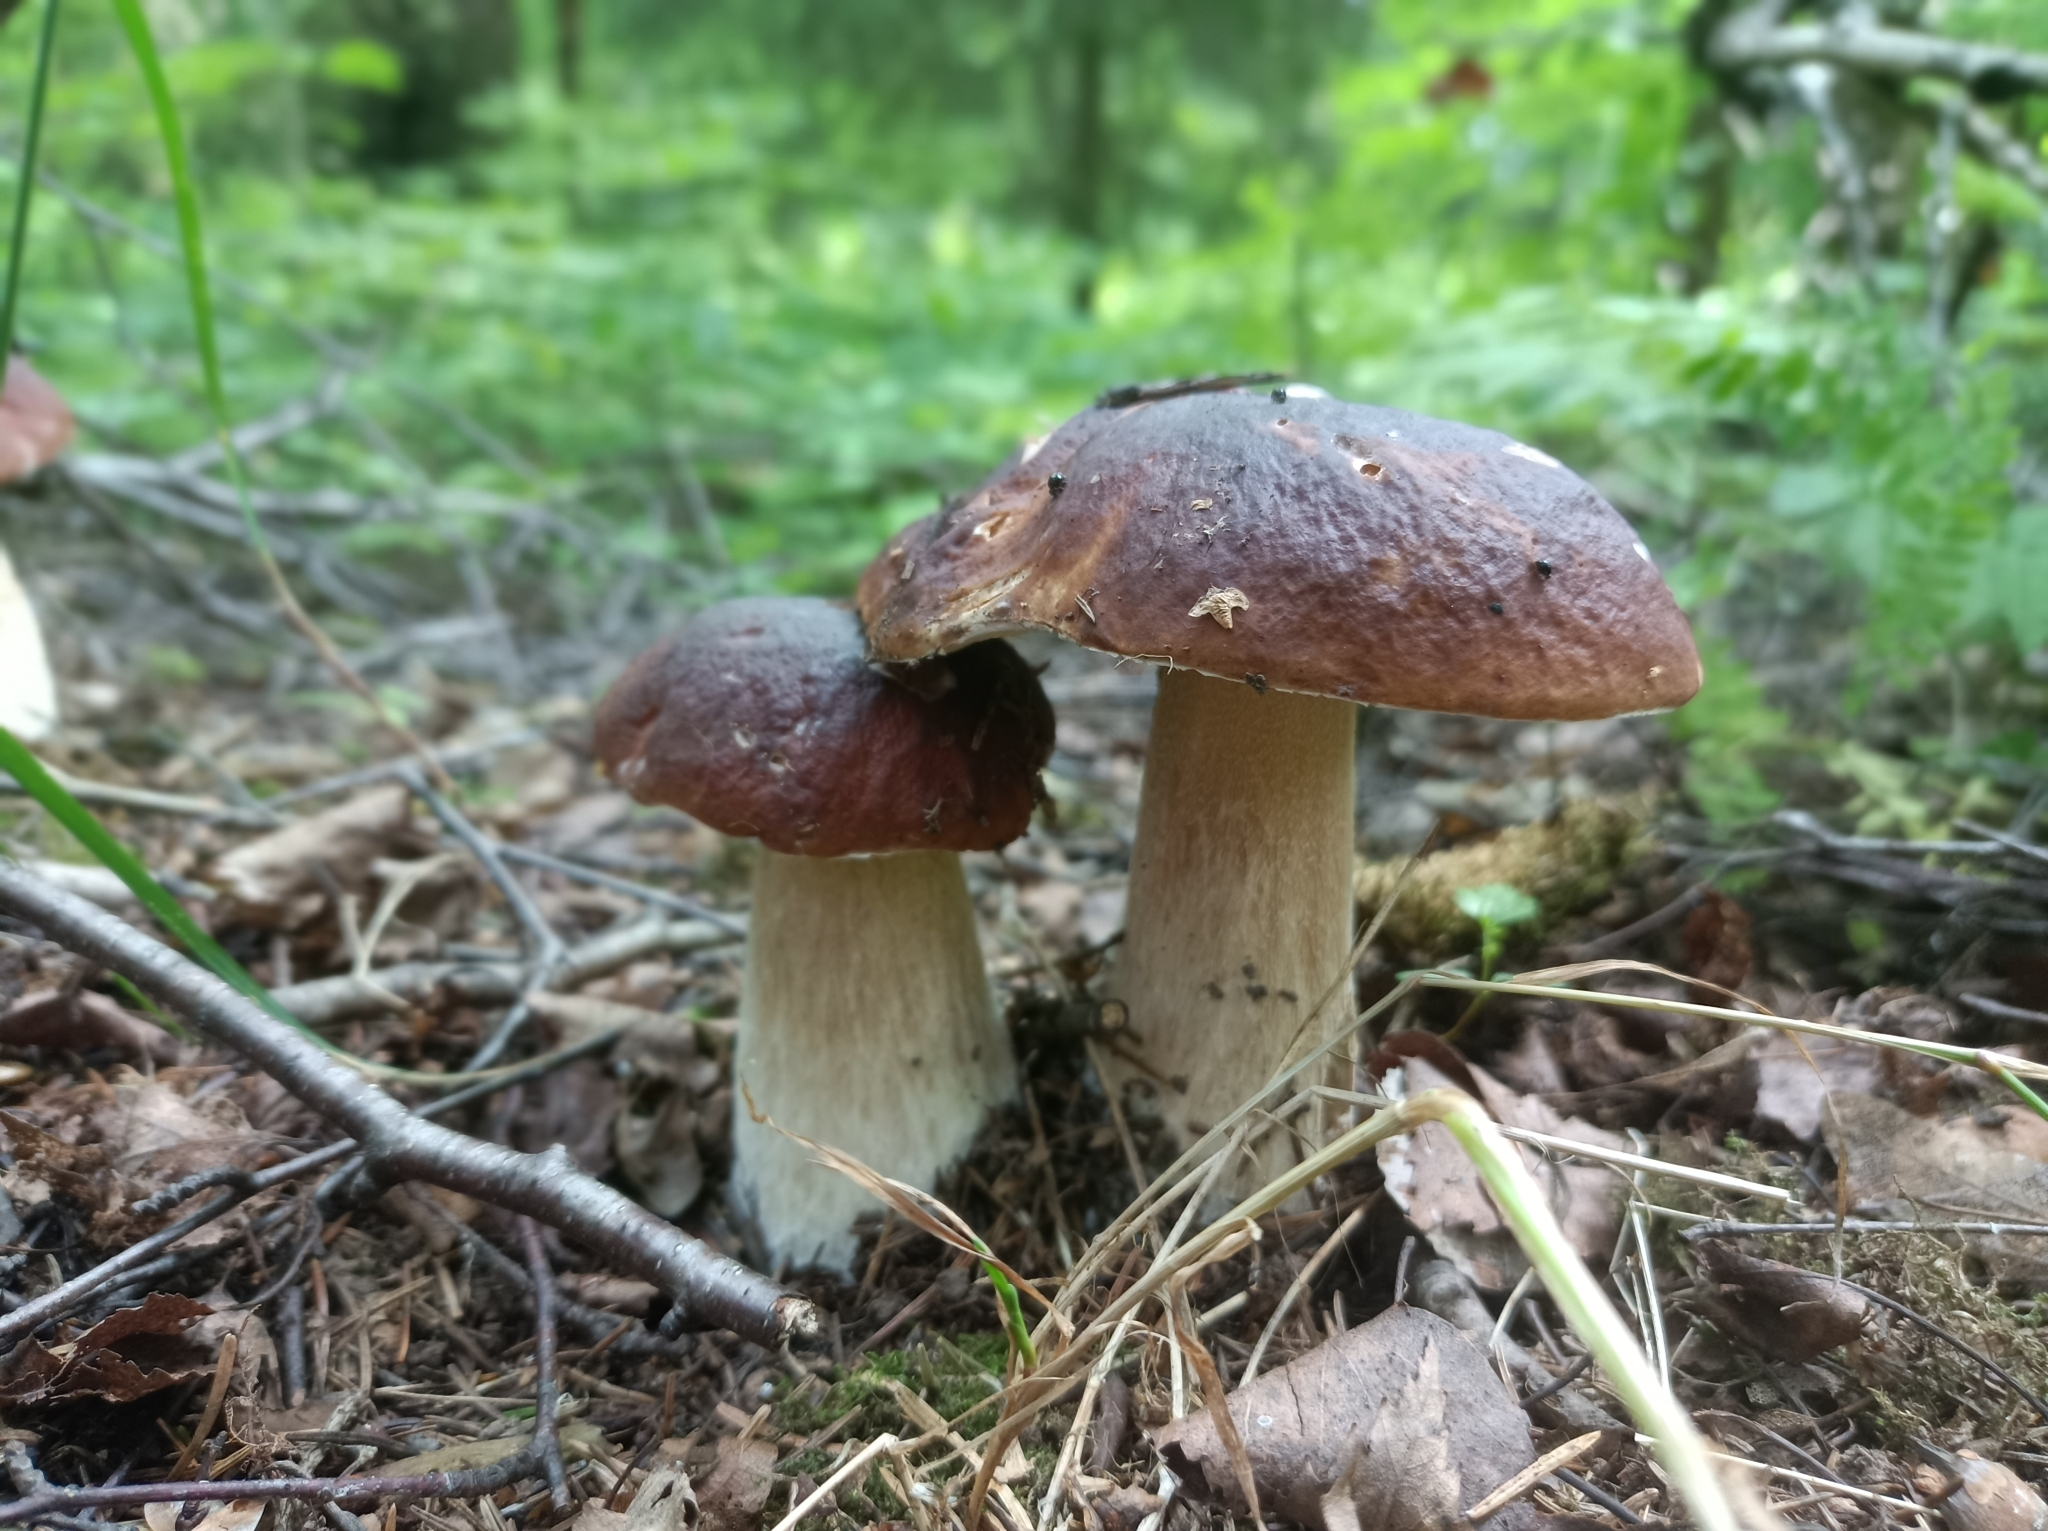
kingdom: Fungi
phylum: Basidiomycota
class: Agaricomycetes
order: Boletales
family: Boletaceae
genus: Boletus
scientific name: Boletus edulis
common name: Cep
